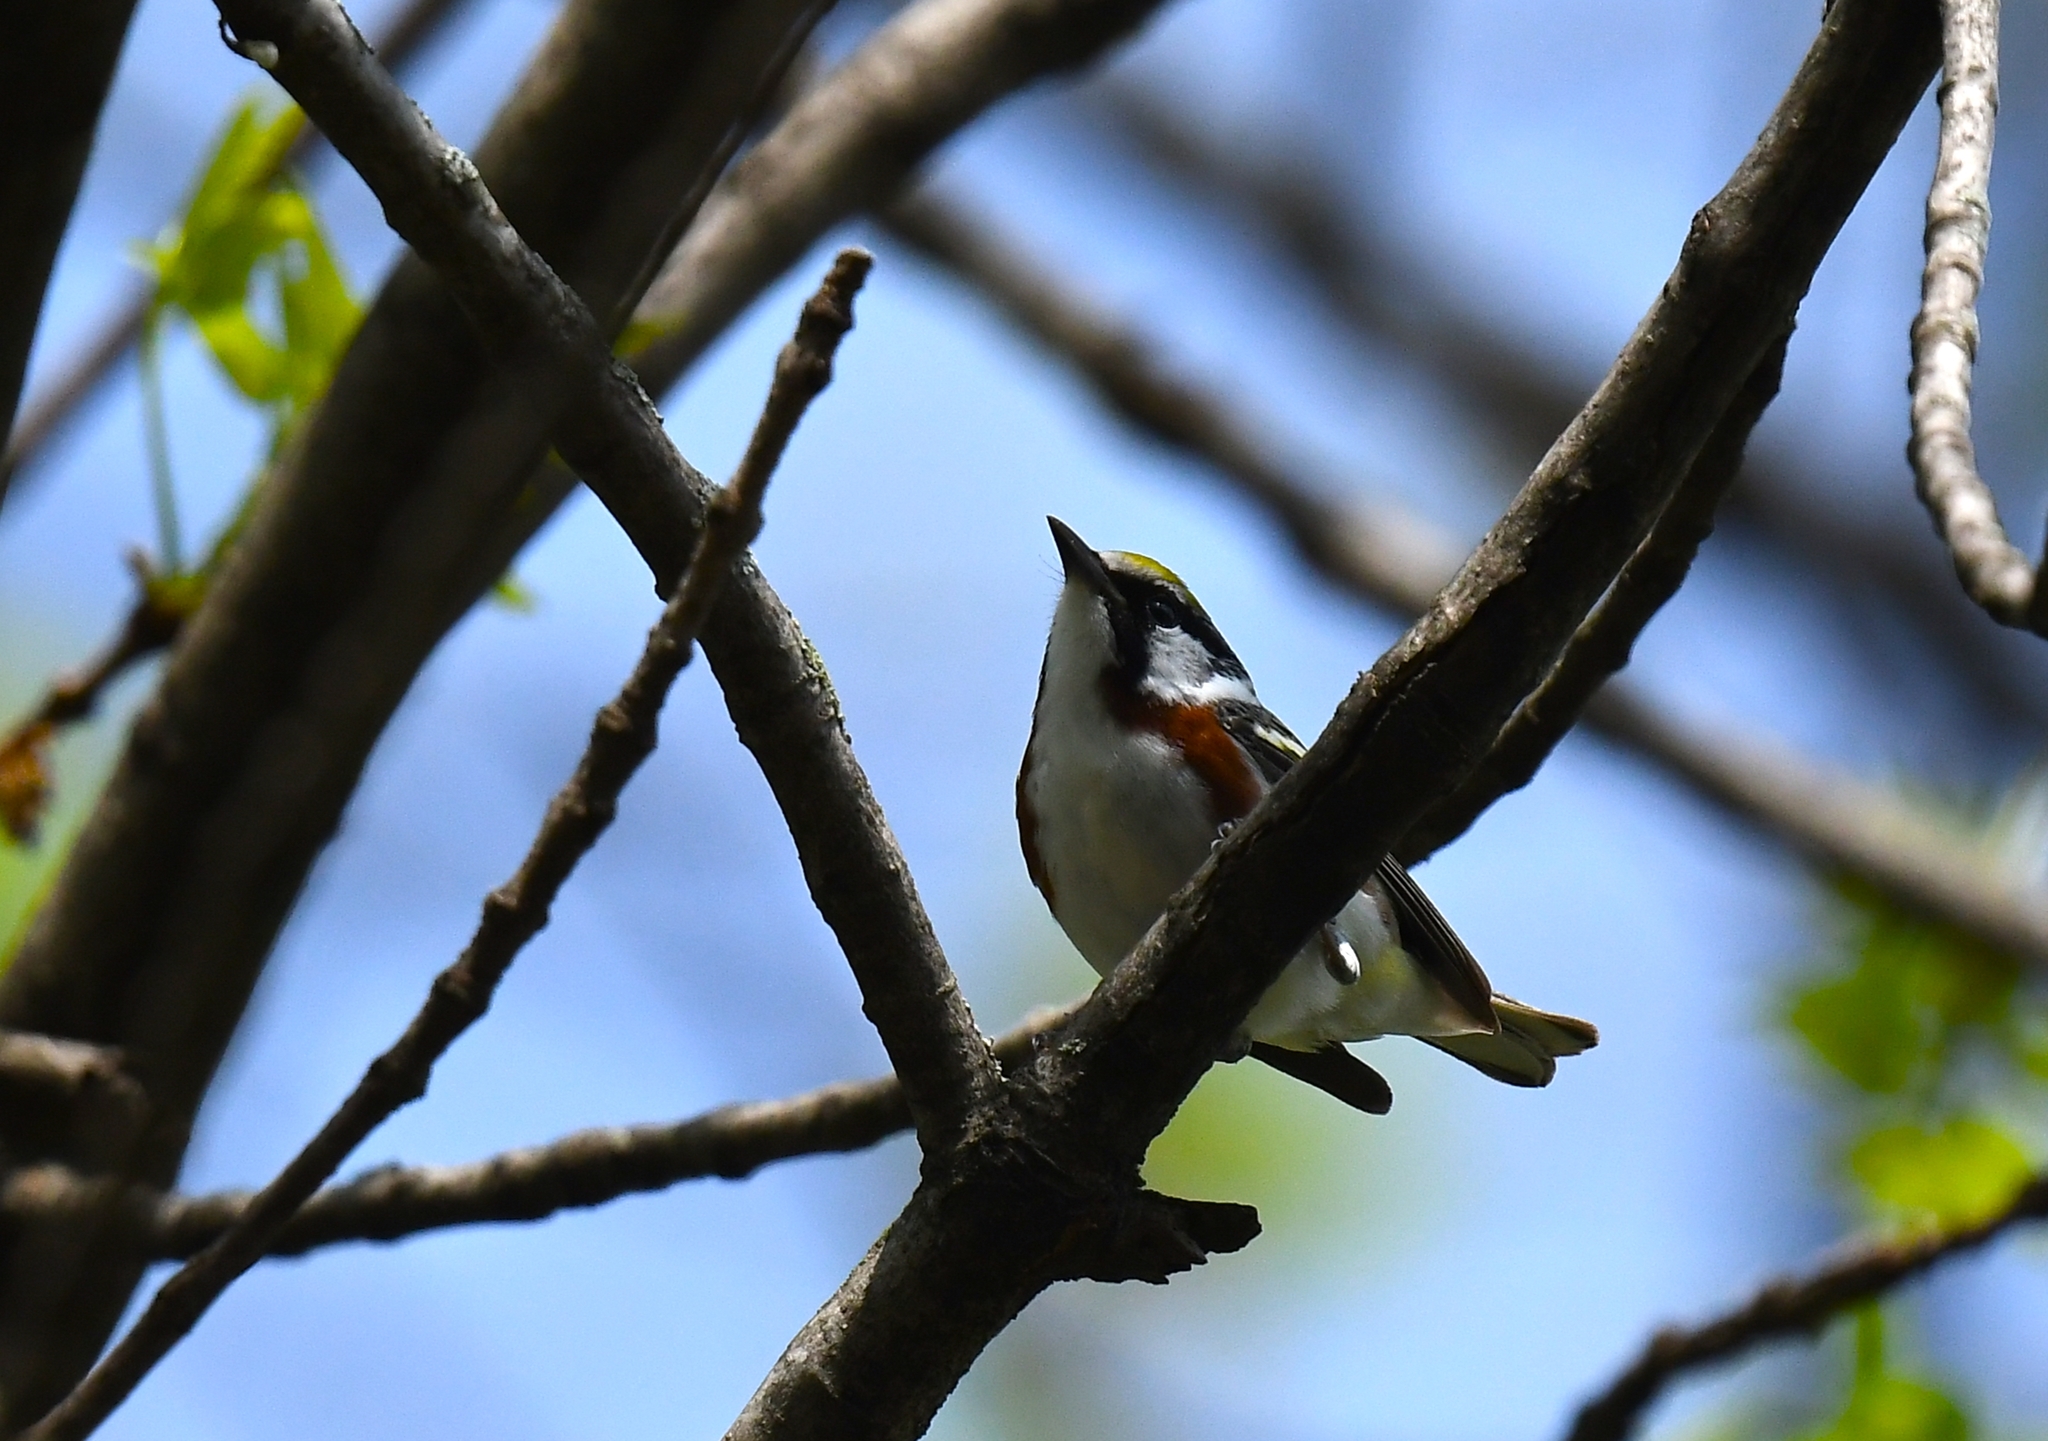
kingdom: Animalia
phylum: Chordata
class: Aves
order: Passeriformes
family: Parulidae
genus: Setophaga
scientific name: Setophaga pensylvanica
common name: Chestnut-sided warbler
